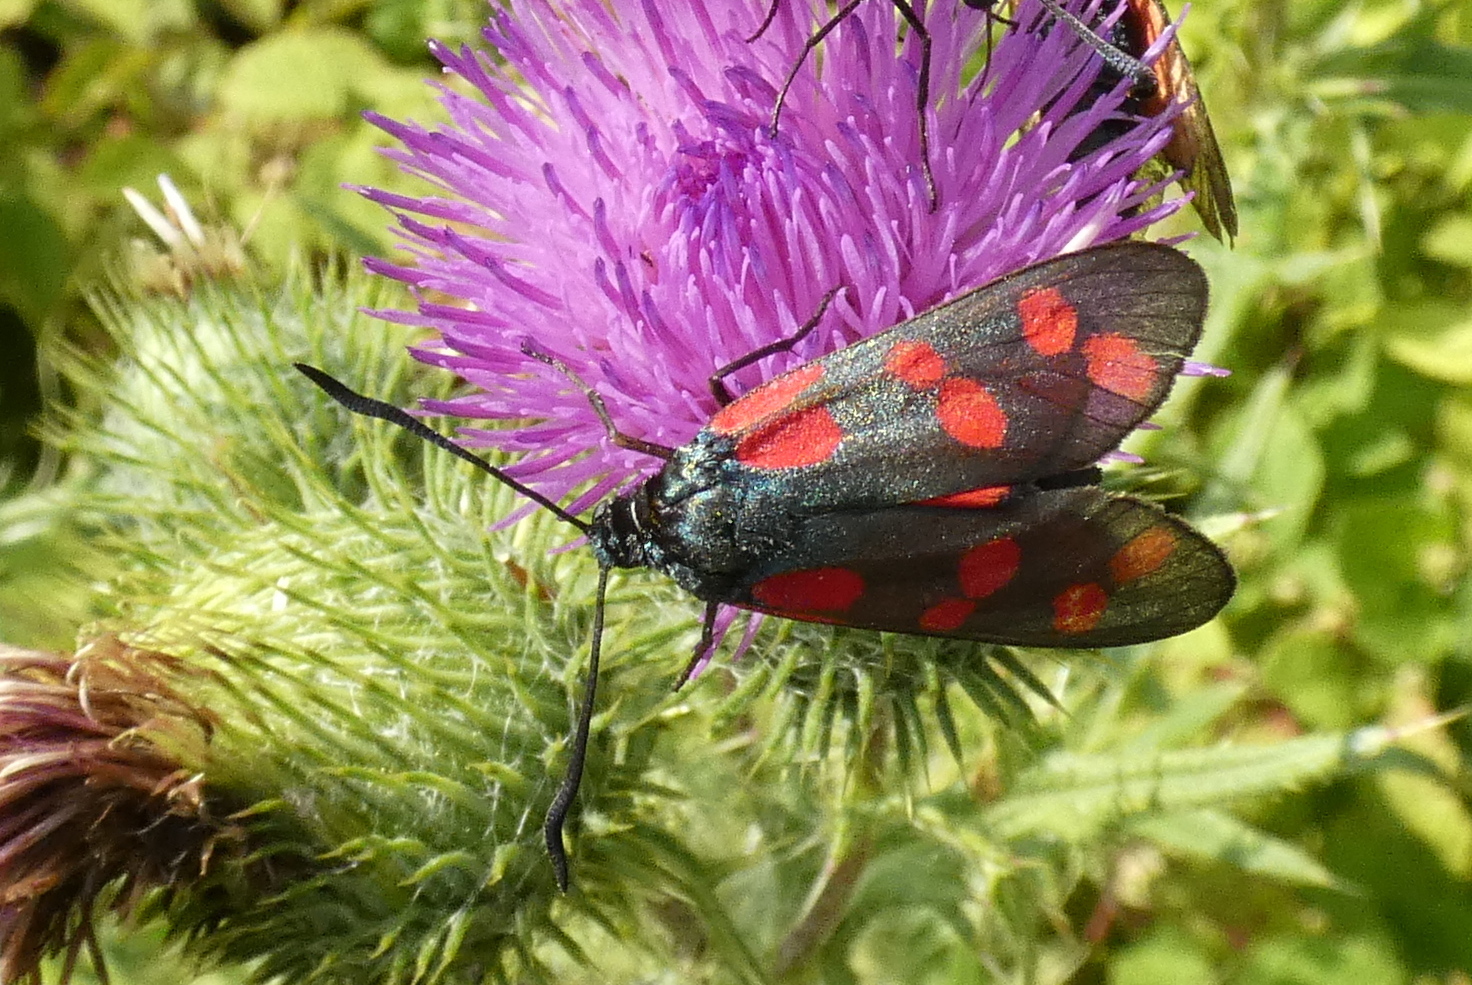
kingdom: Animalia
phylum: Arthropoda
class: Insecta
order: Lepidoptera
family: Zygaenidae
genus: Zygaena
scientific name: Zygaena filipendulae
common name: Six-spot burnet
